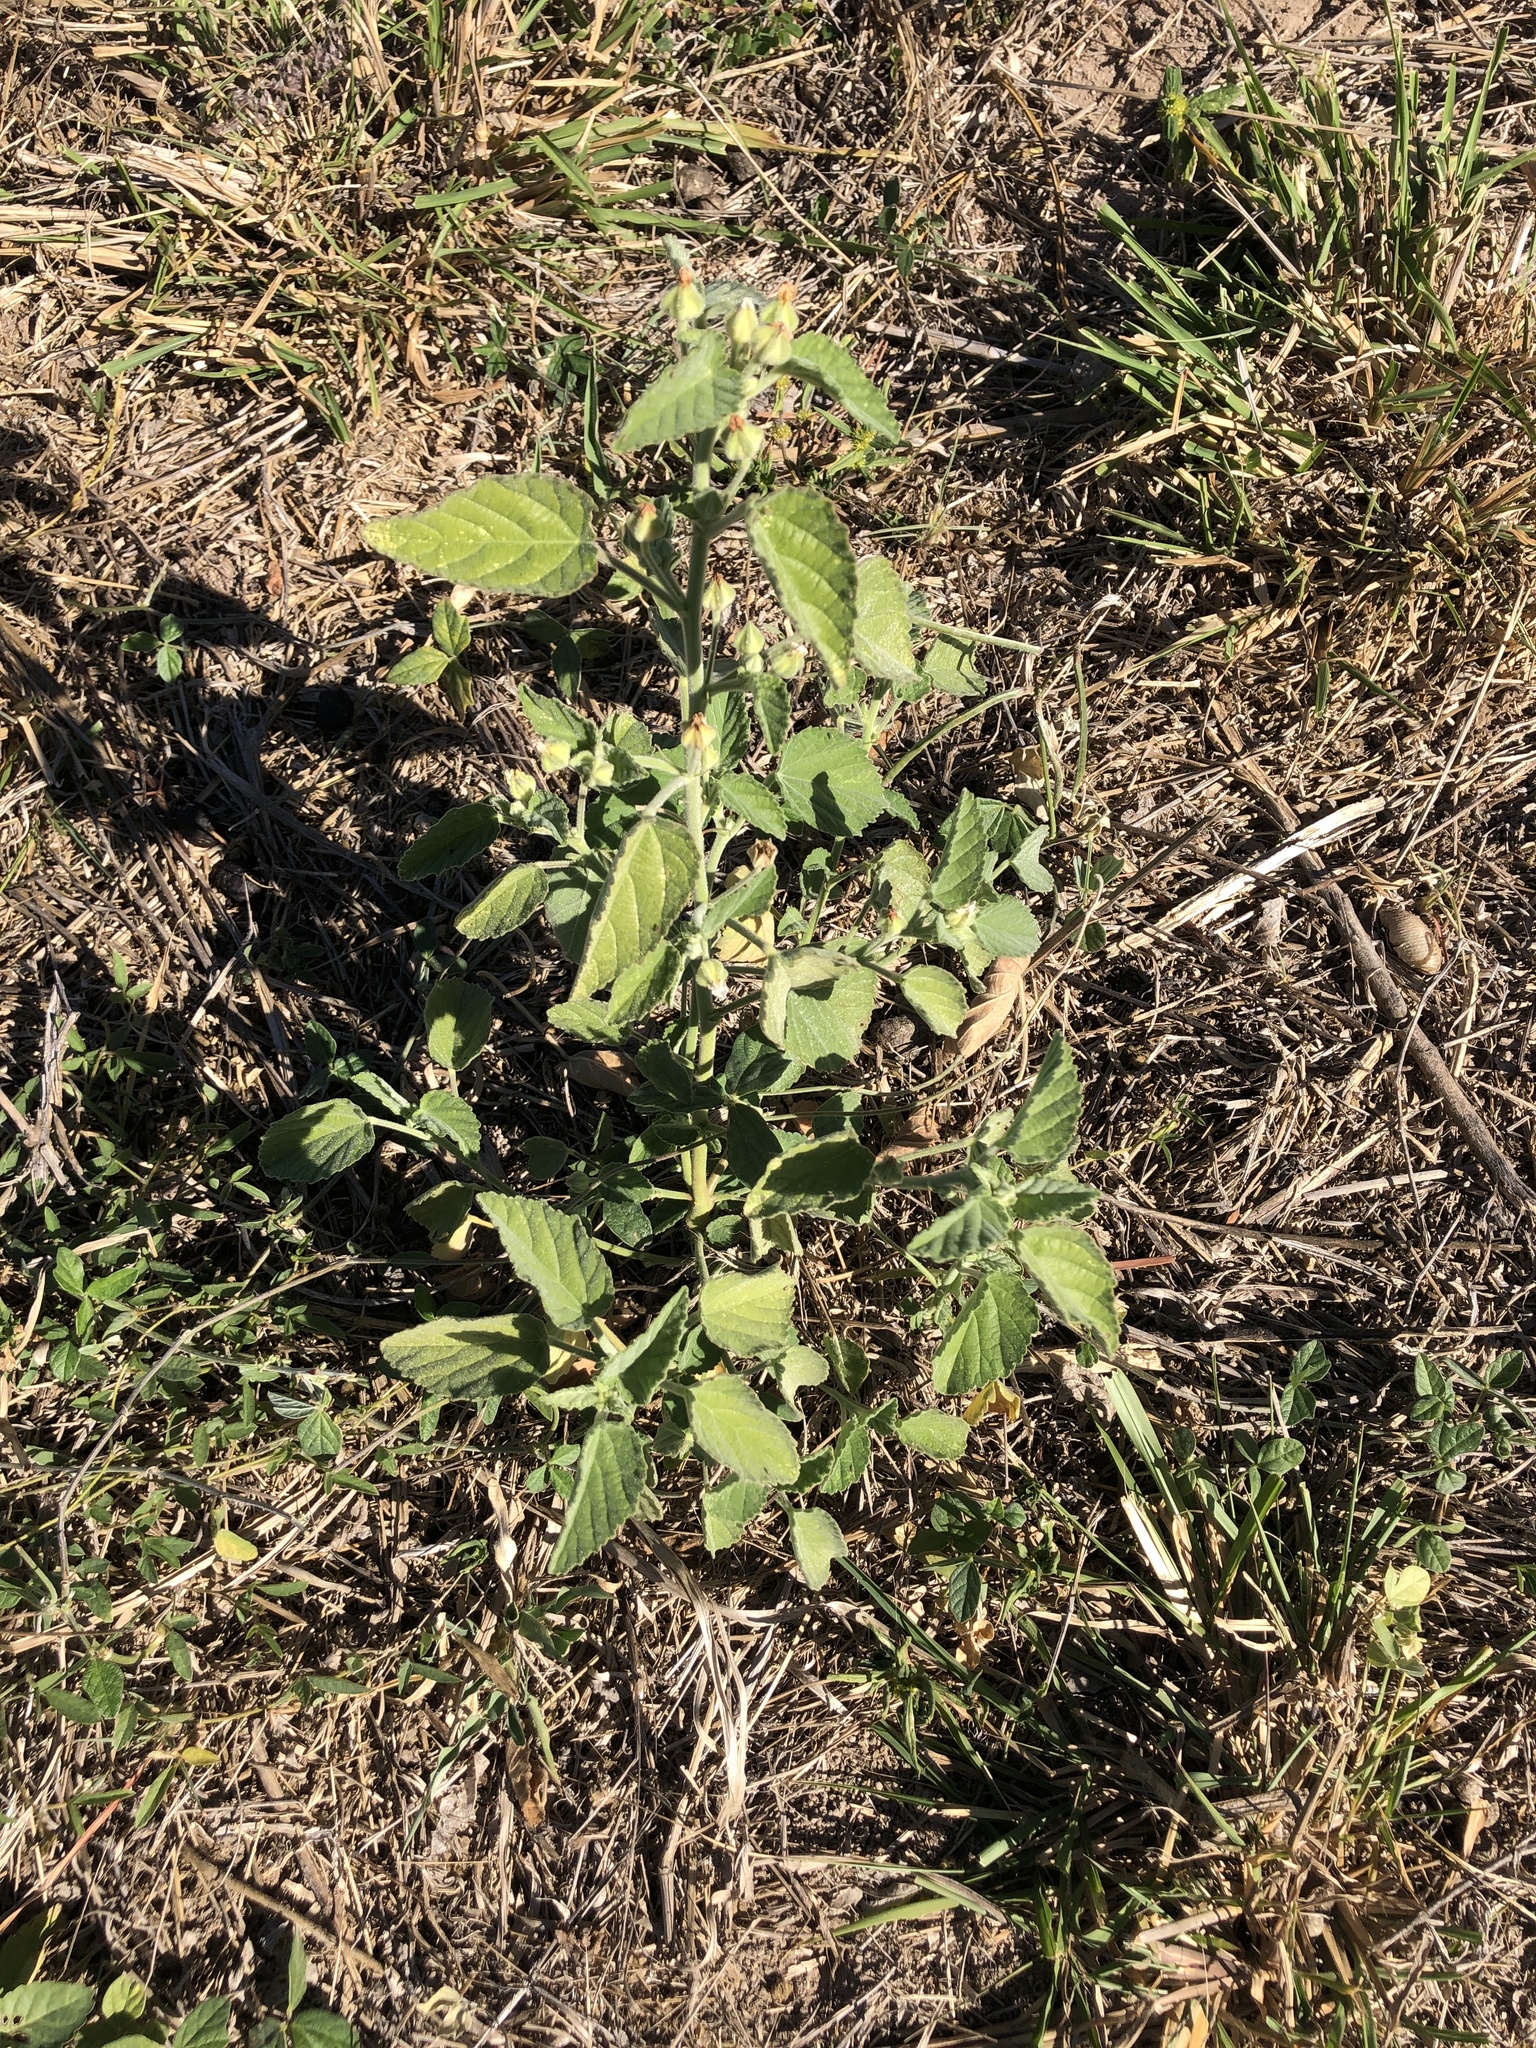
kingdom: Plantae
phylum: Tracheophyta
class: Magnoliopsida
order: Malvales
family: Malvaceae
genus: Sida
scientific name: Sida cordifolia
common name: Ilima
